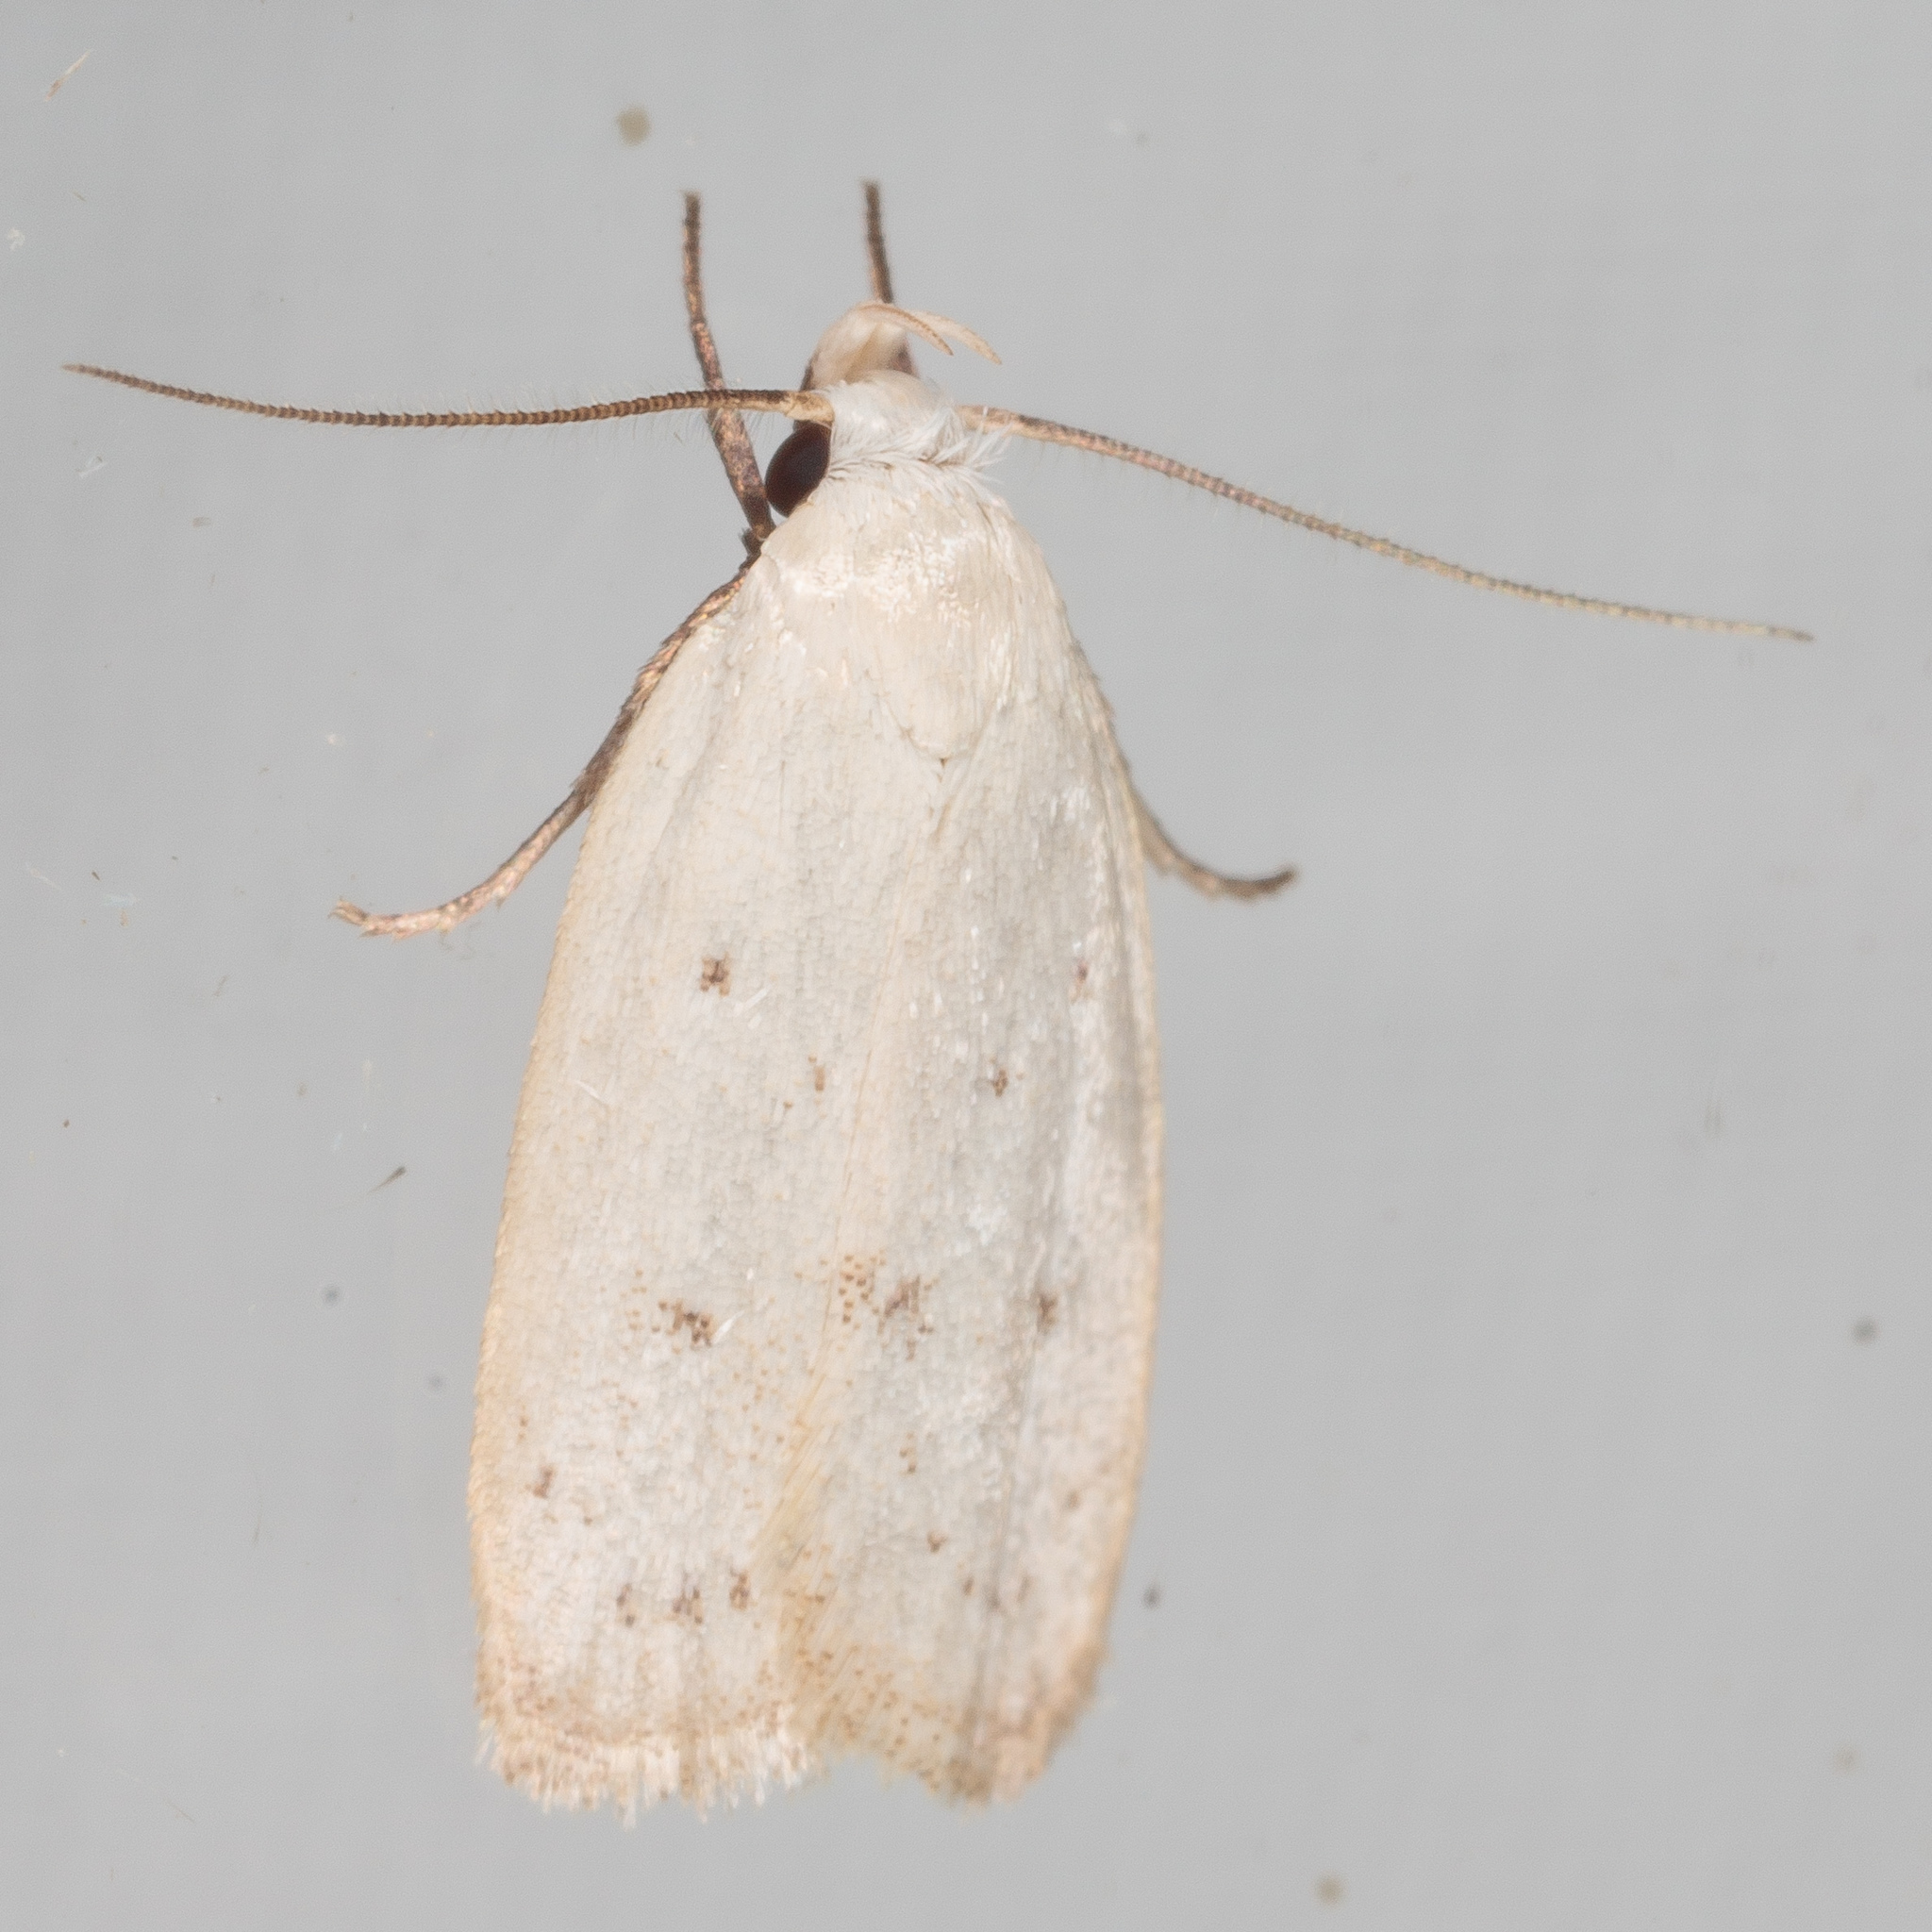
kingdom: Animalia
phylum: Arthropoda
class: Insecta
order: Lepidoptera
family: Oecophoridae
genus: Inga
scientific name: Inga cretacea
